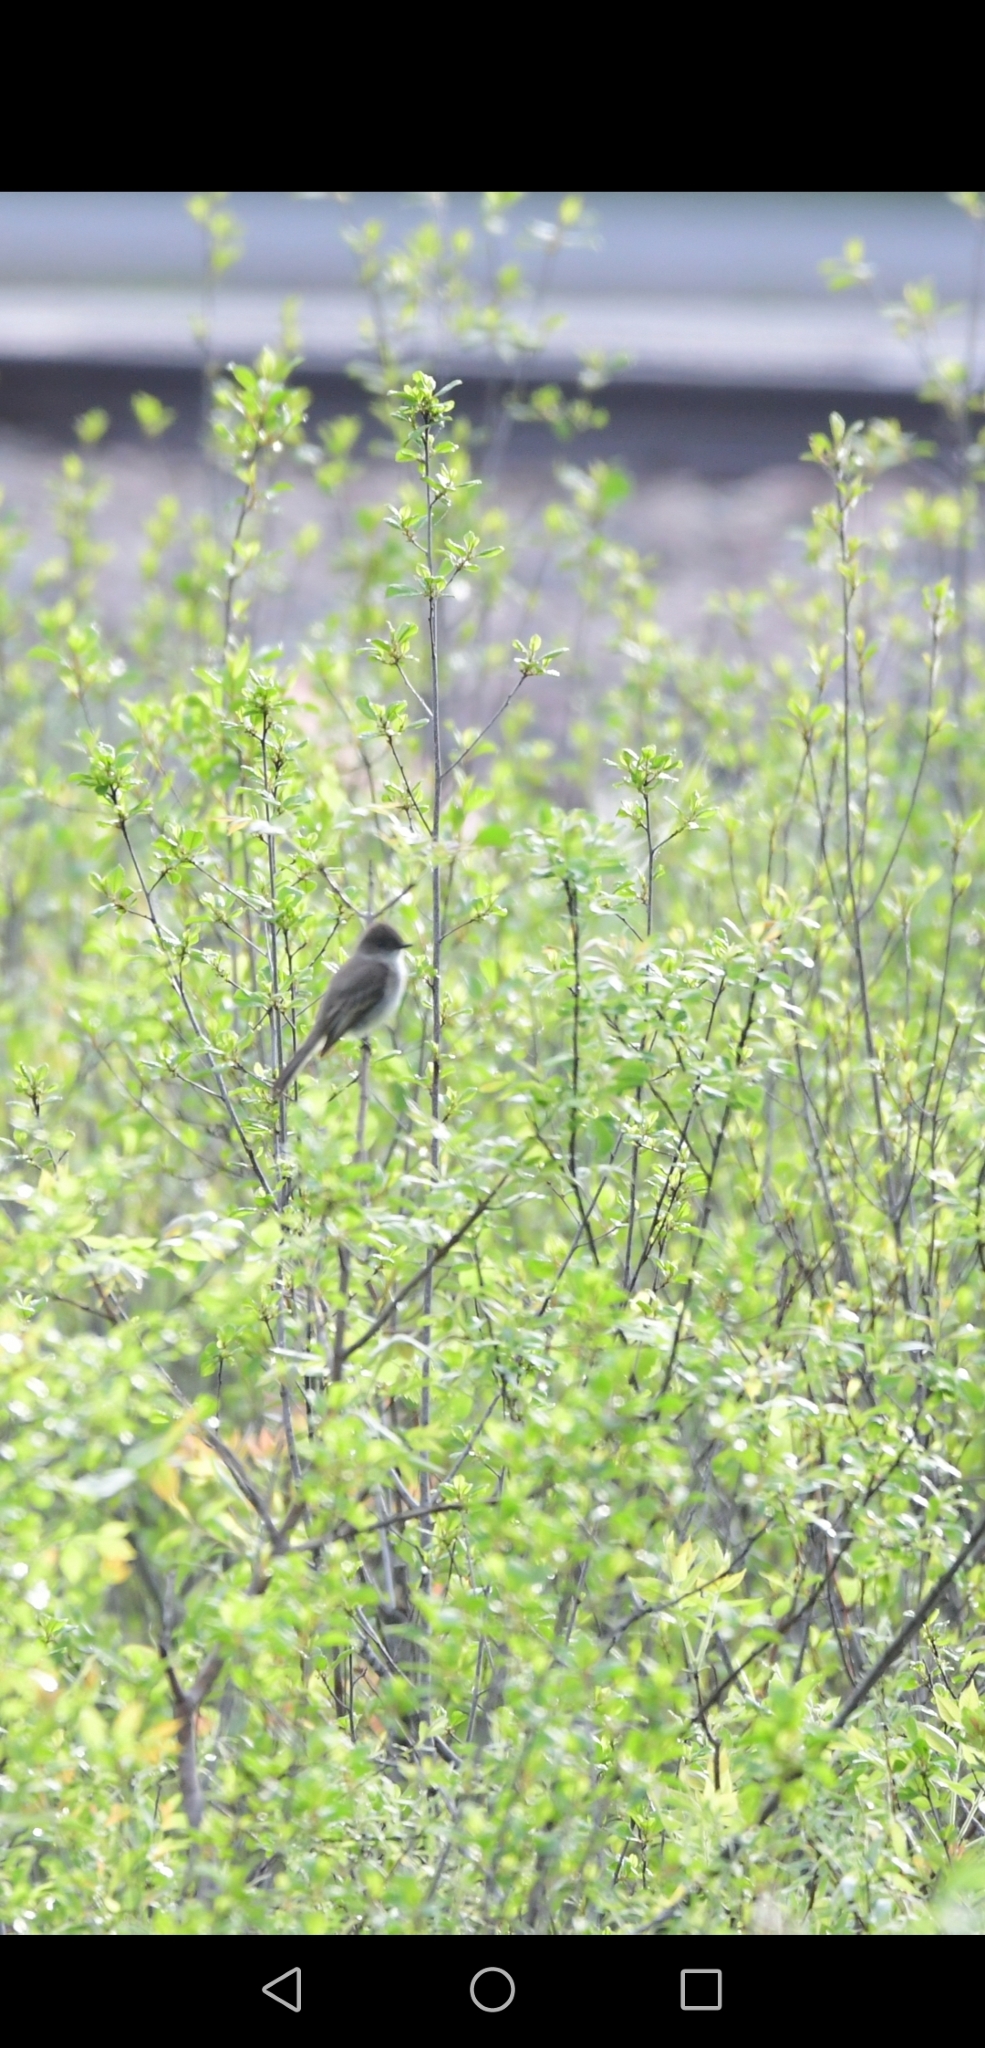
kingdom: Animalia
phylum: Chordata
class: Aves
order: Passeriformes
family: Tyrannidae
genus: Sayornis
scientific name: Sayornis phoebe
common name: Eastern phoebe
